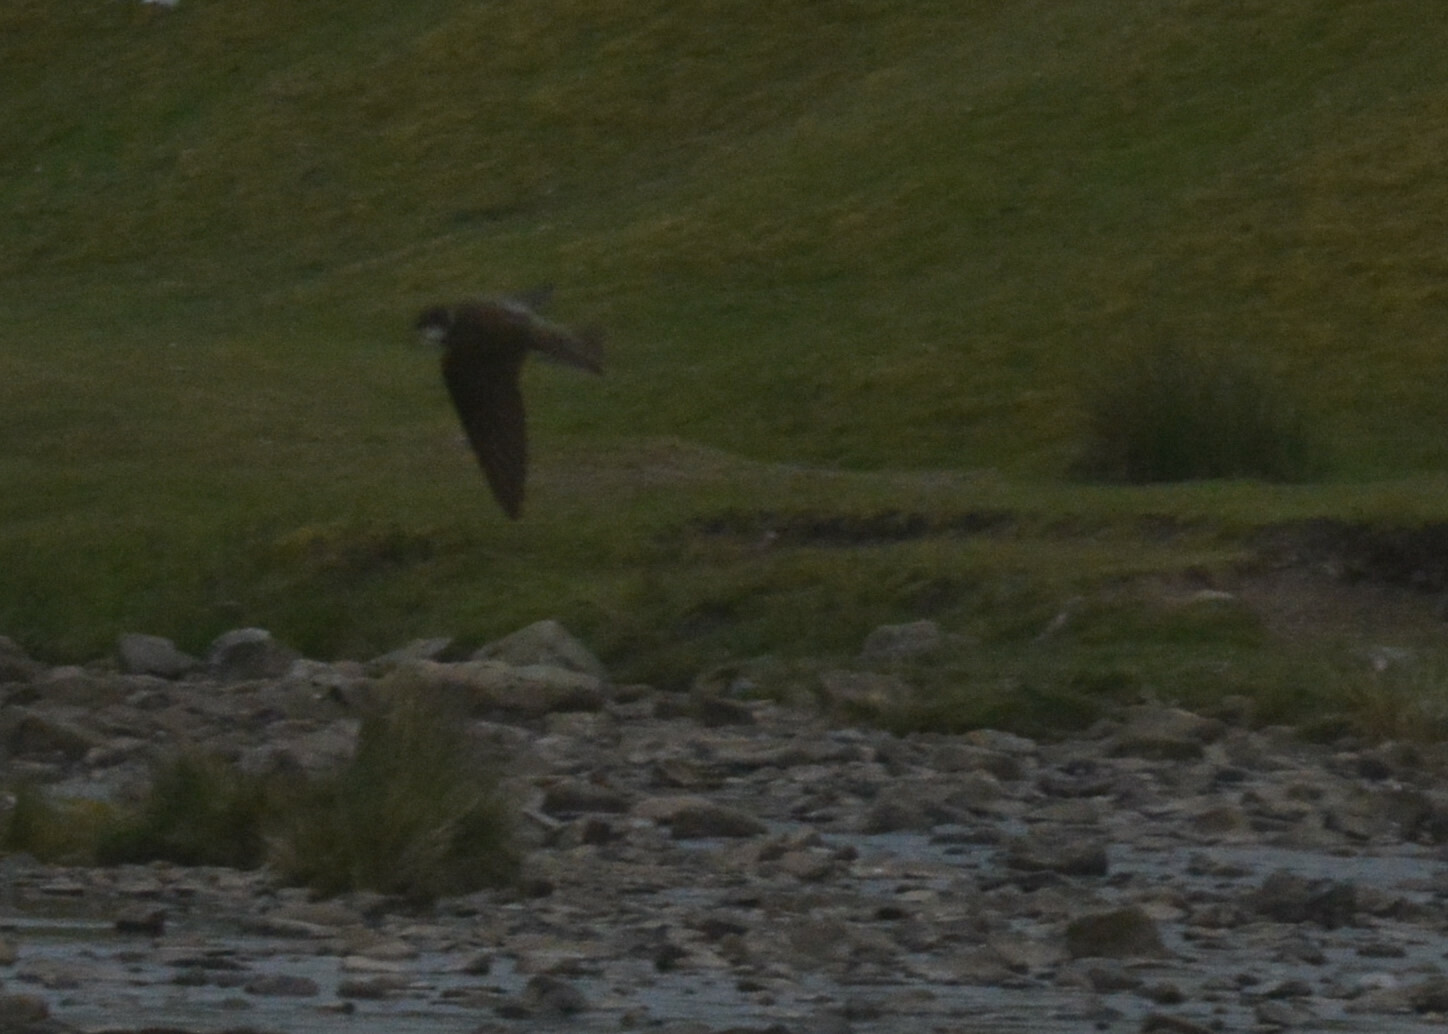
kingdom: Animalia
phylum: Chordata
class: Aves
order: Passeriformes
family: Hirundinidae
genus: Riparia
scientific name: Riparia riparia
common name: Sand martin
